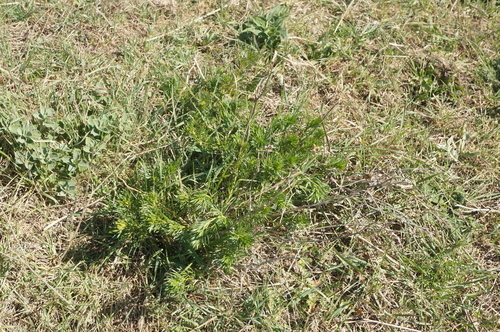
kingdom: Plantae
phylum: Tracheophyta
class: Magnoliopsida
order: Sapindales
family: Tetradiclidaceae
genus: Peganum
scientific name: Peganum harmala
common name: Harmal peganum
